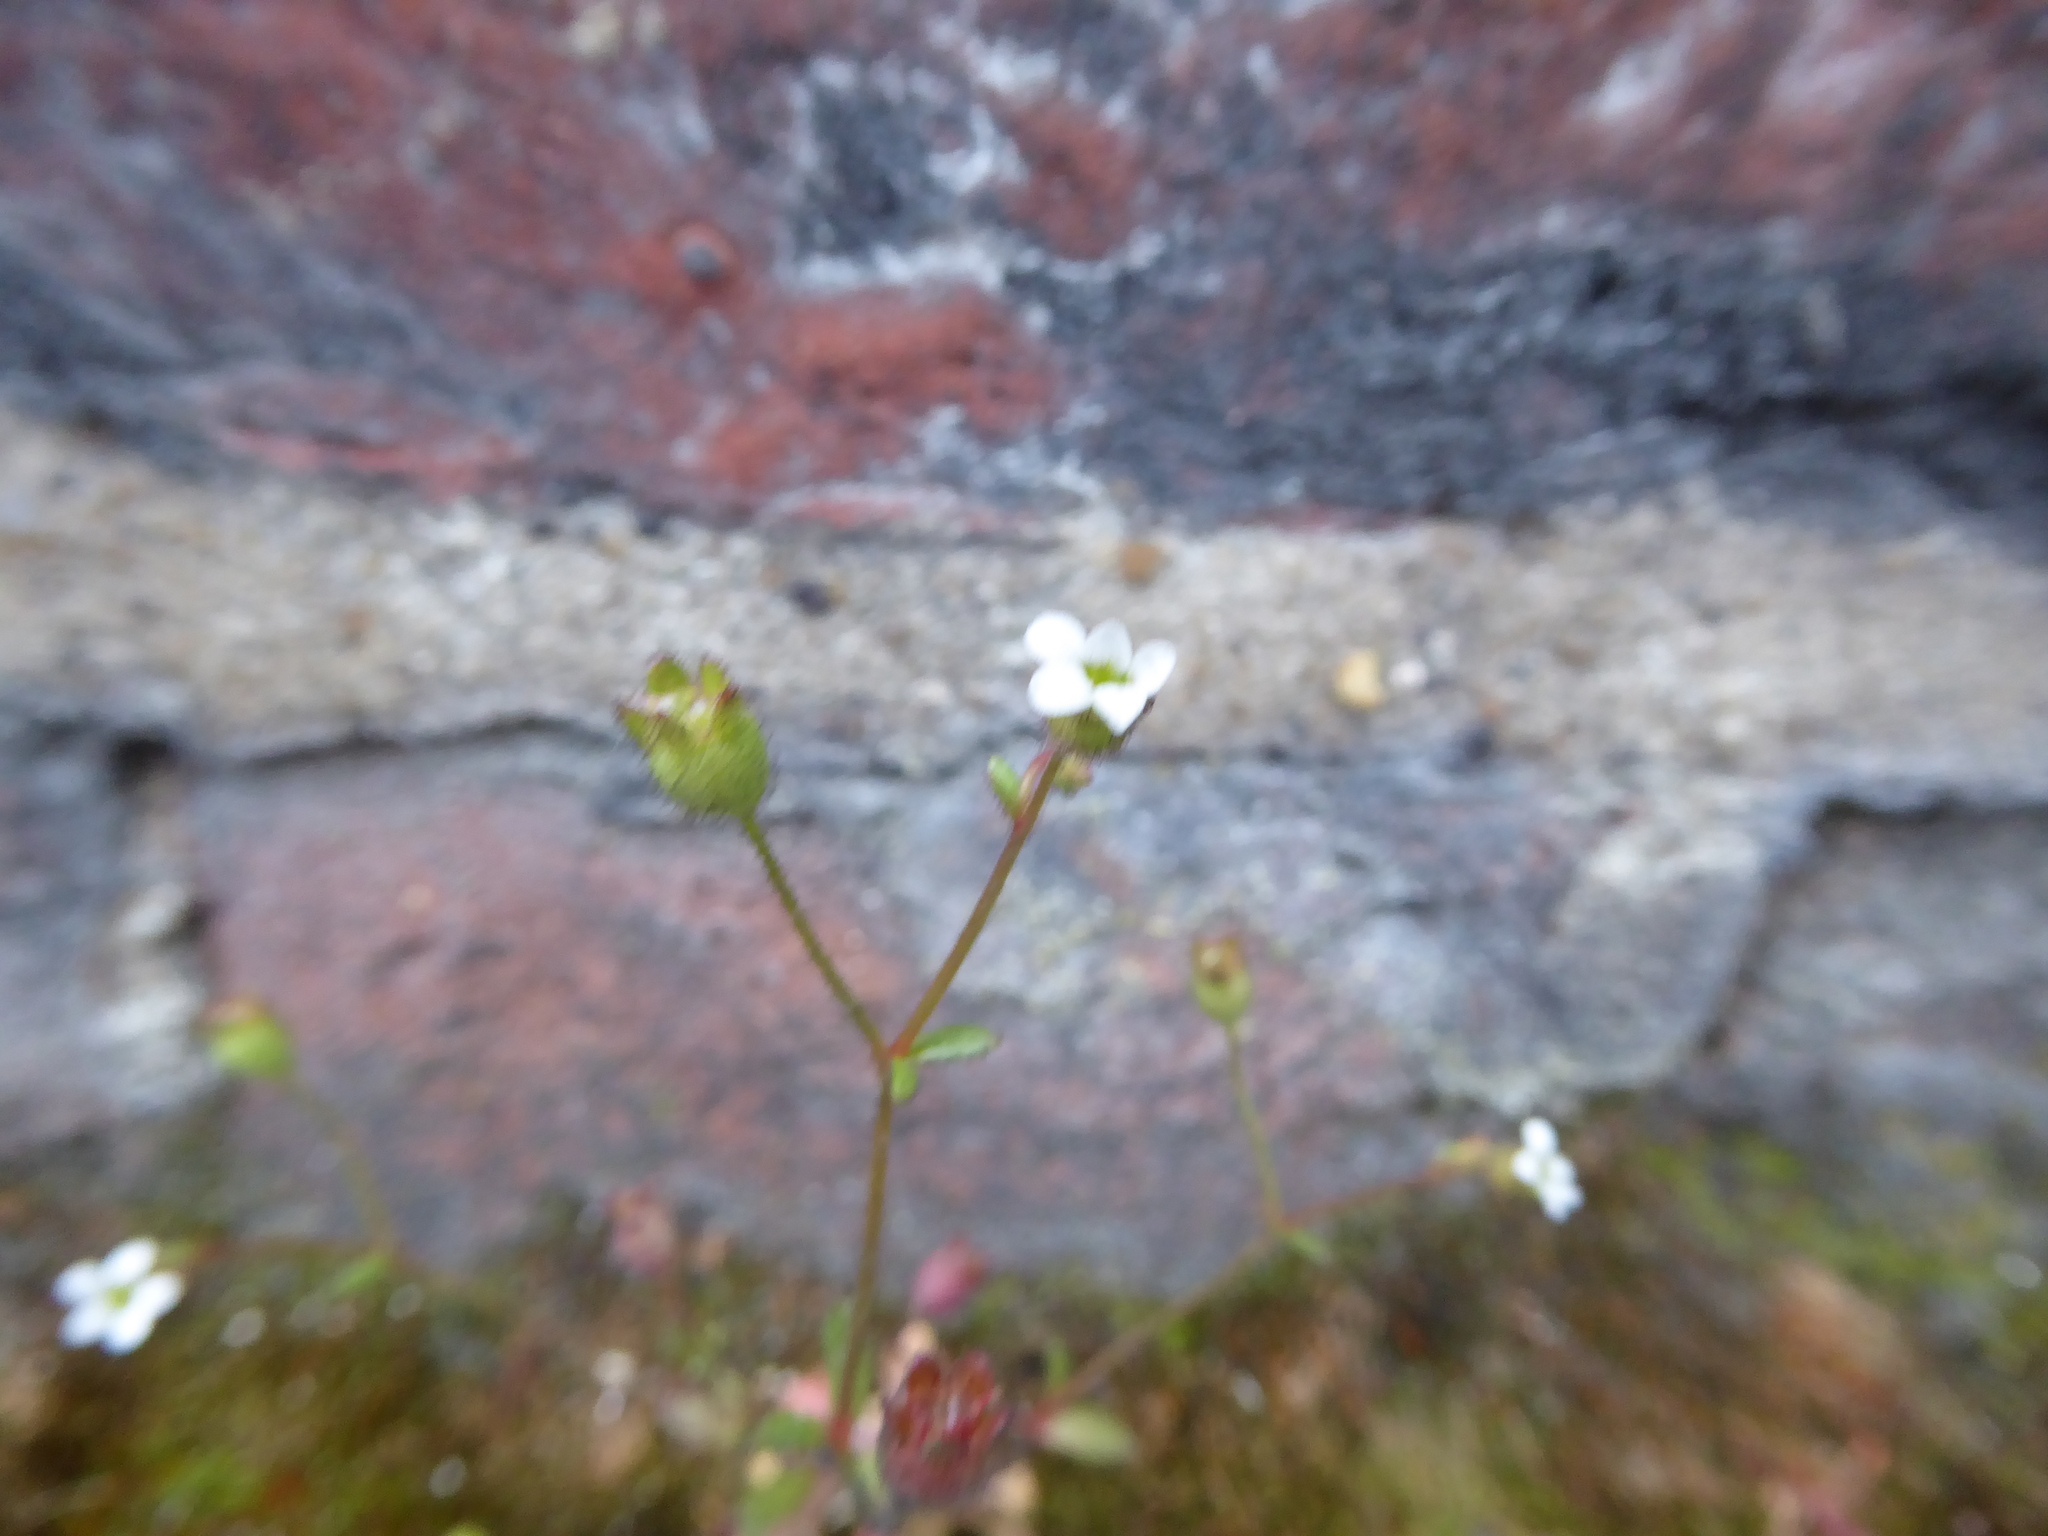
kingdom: Plantae
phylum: Tracheophyta
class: Magnoliopsida
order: Saxifragales
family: Saxifragaceae
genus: Saxifraga
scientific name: Saxifraga tridactylites
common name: Rue-leaved saxifrage
